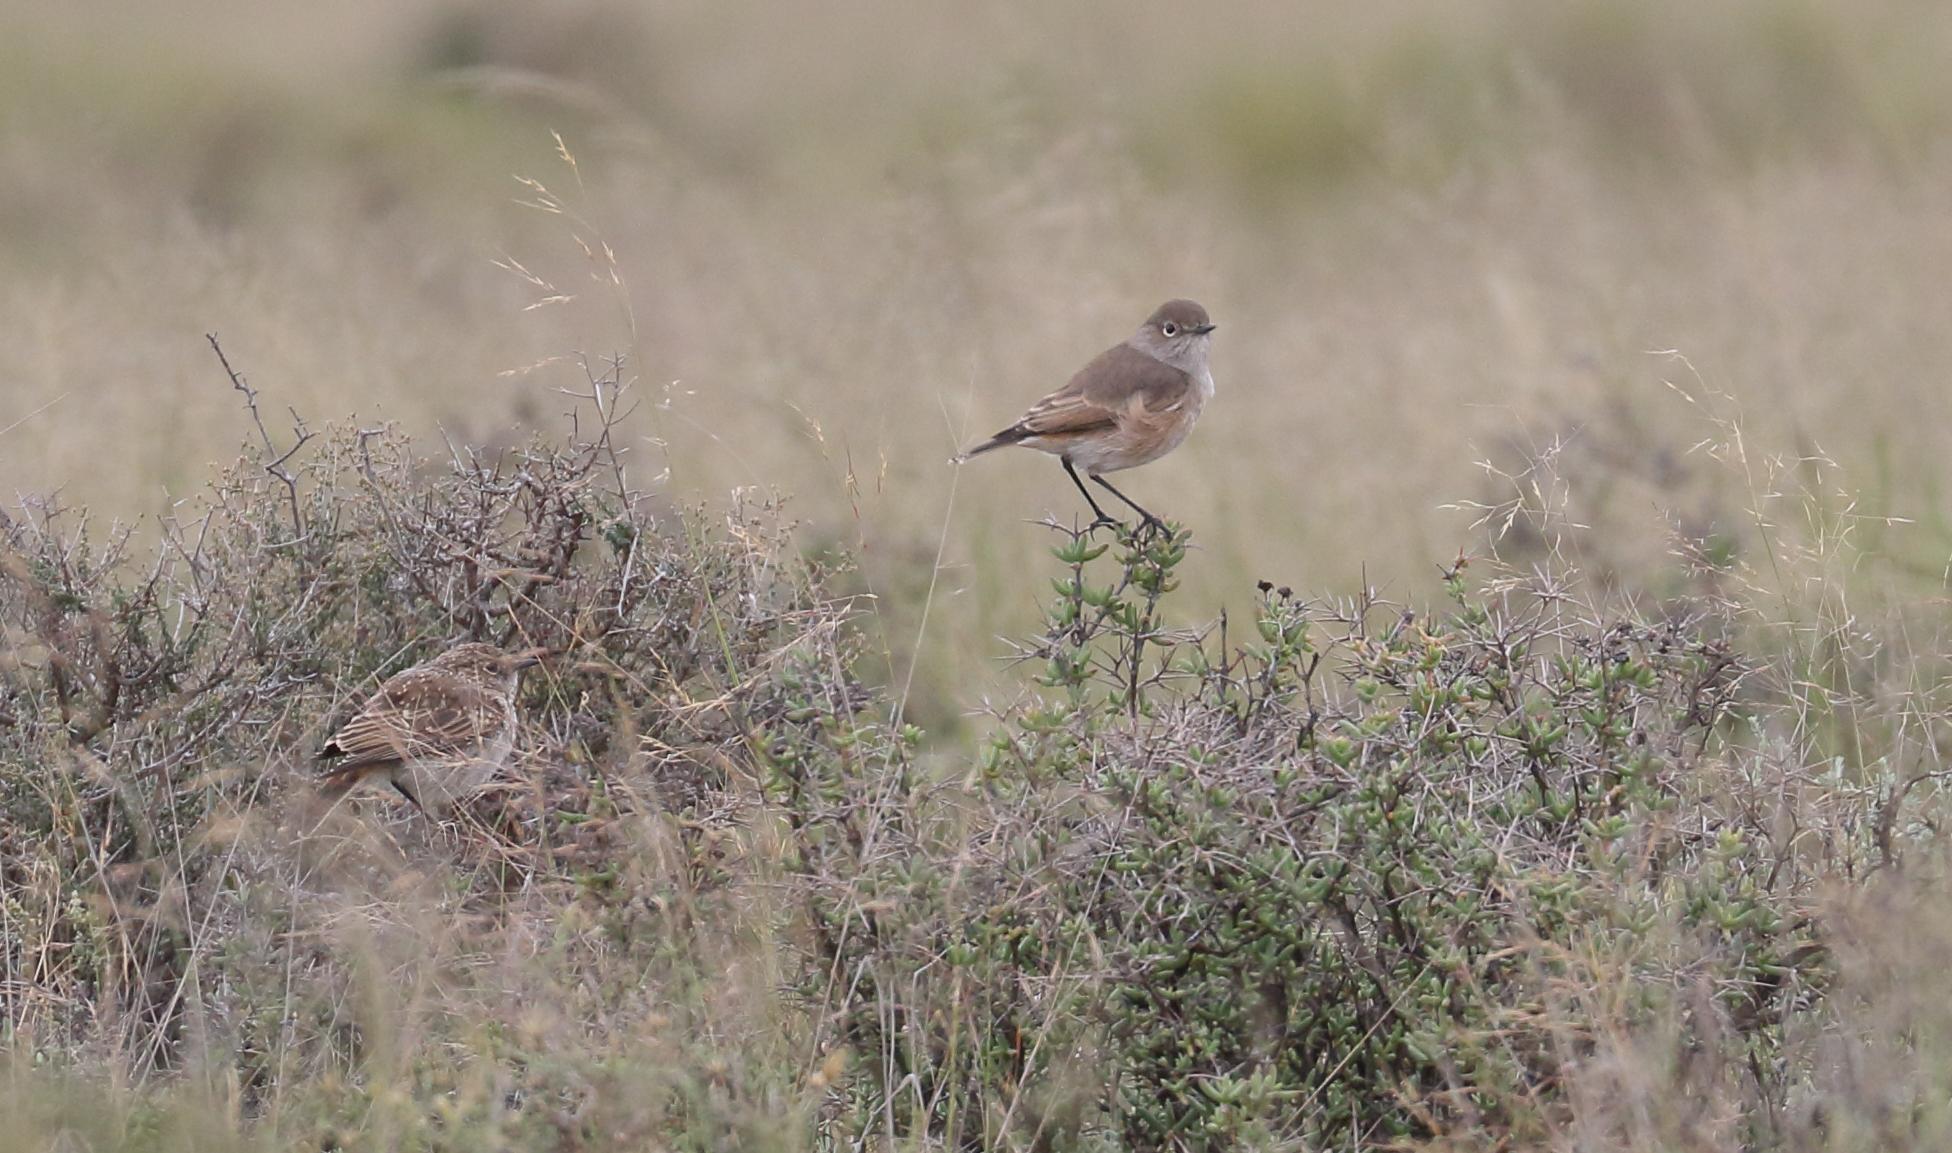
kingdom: Animalia
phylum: Chordata
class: Aves
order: Passeriformes
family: Muscicapidae
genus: Emarginata
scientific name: Emarginata sinuata
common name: Sickle-winged chat
